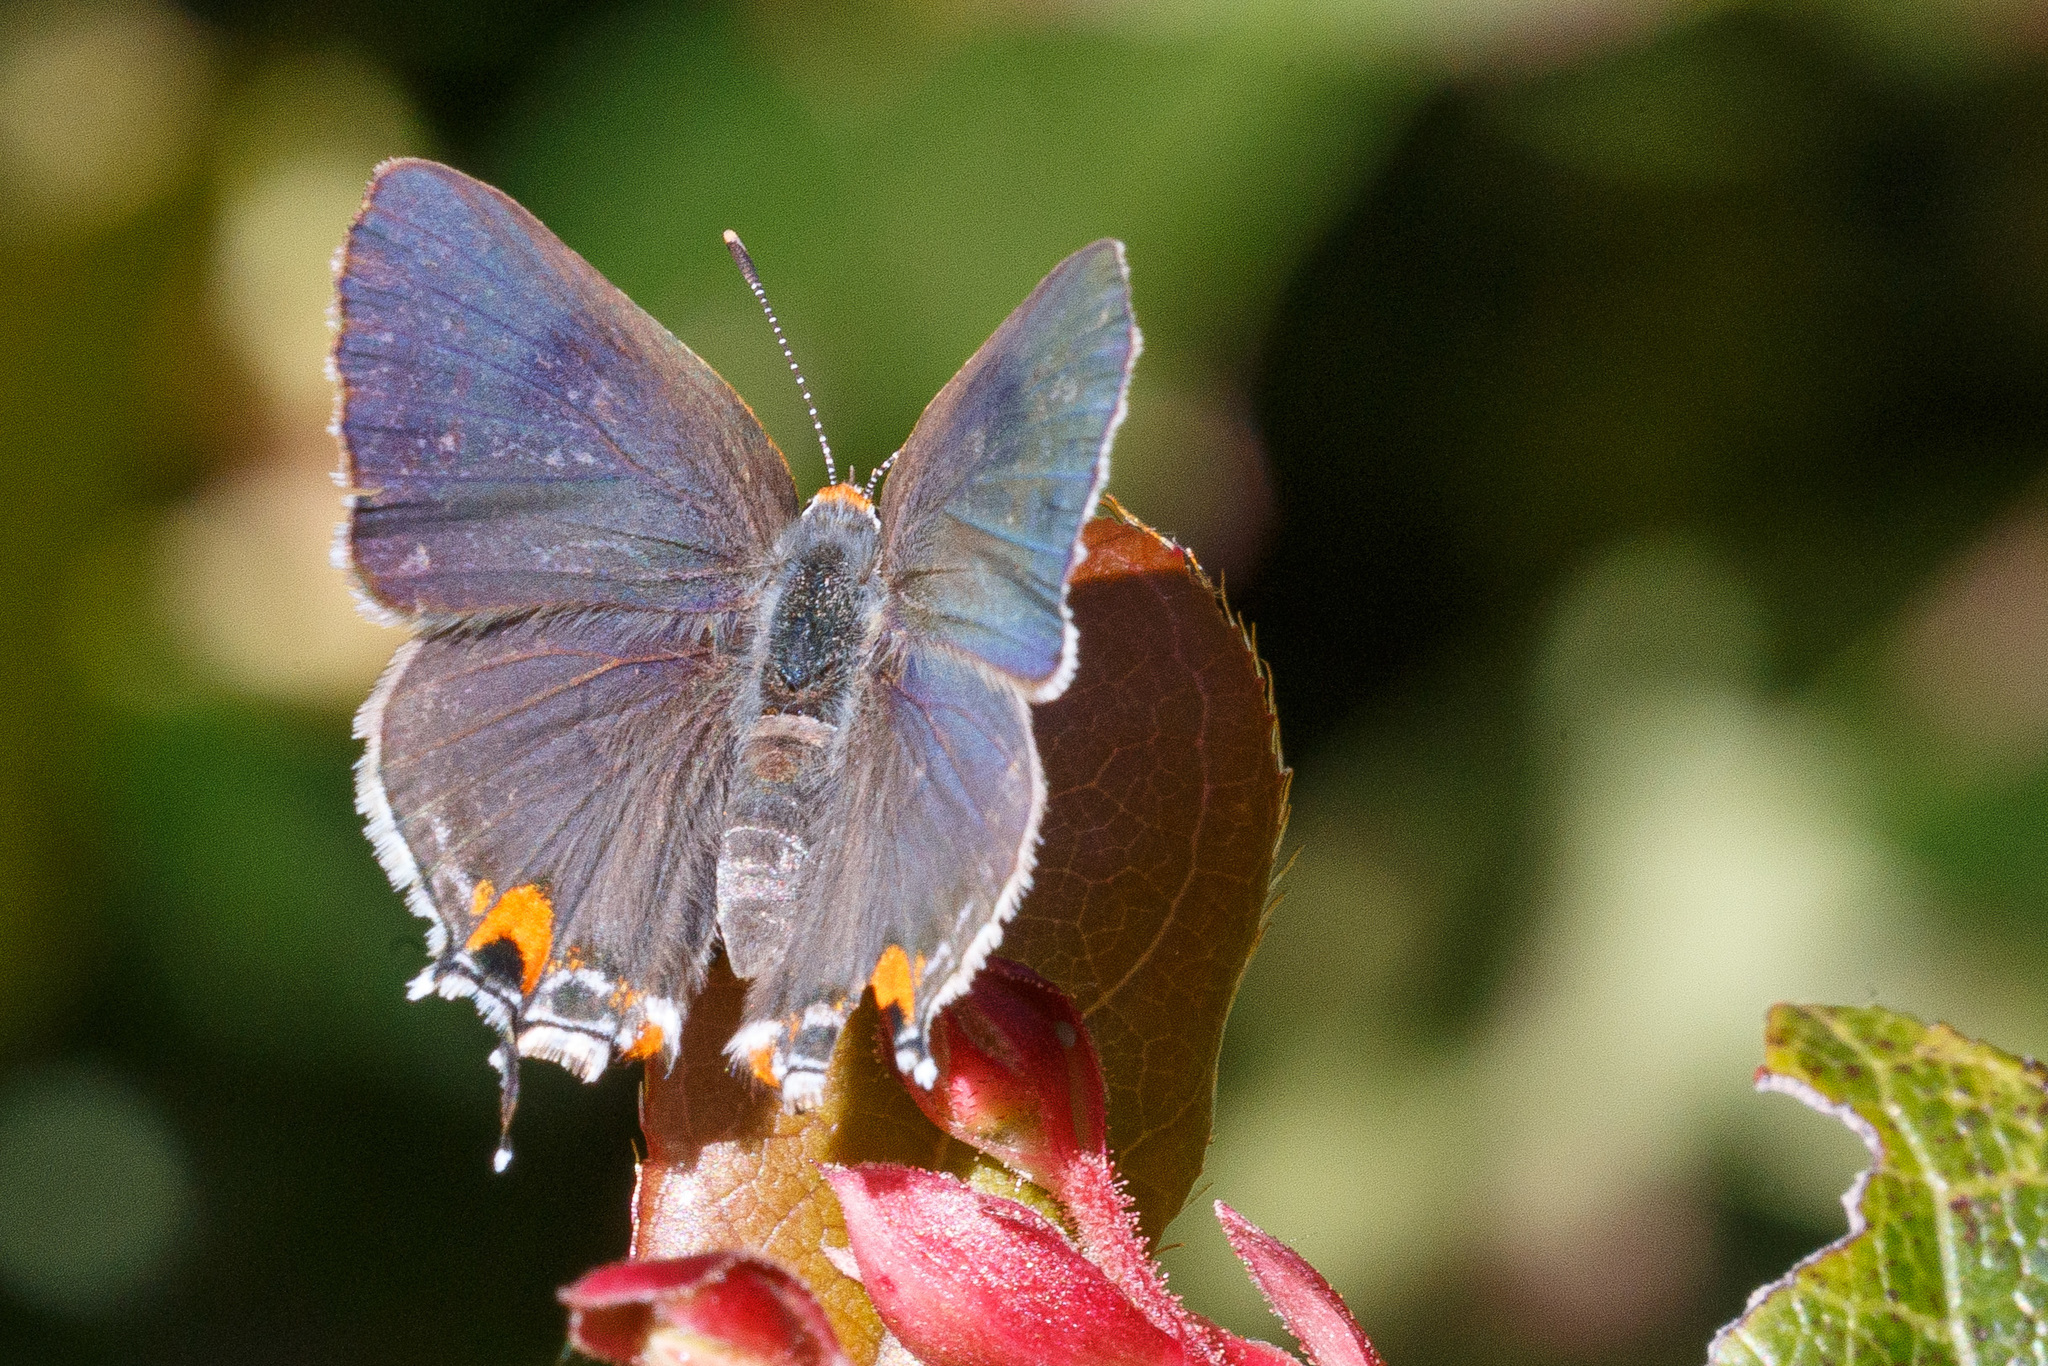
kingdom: Animalia
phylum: Arthropoda
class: Insecta
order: Lepidoptera
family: Lycaenidae
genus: Strymon
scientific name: Strymon melinus
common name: Gray hairstreak
